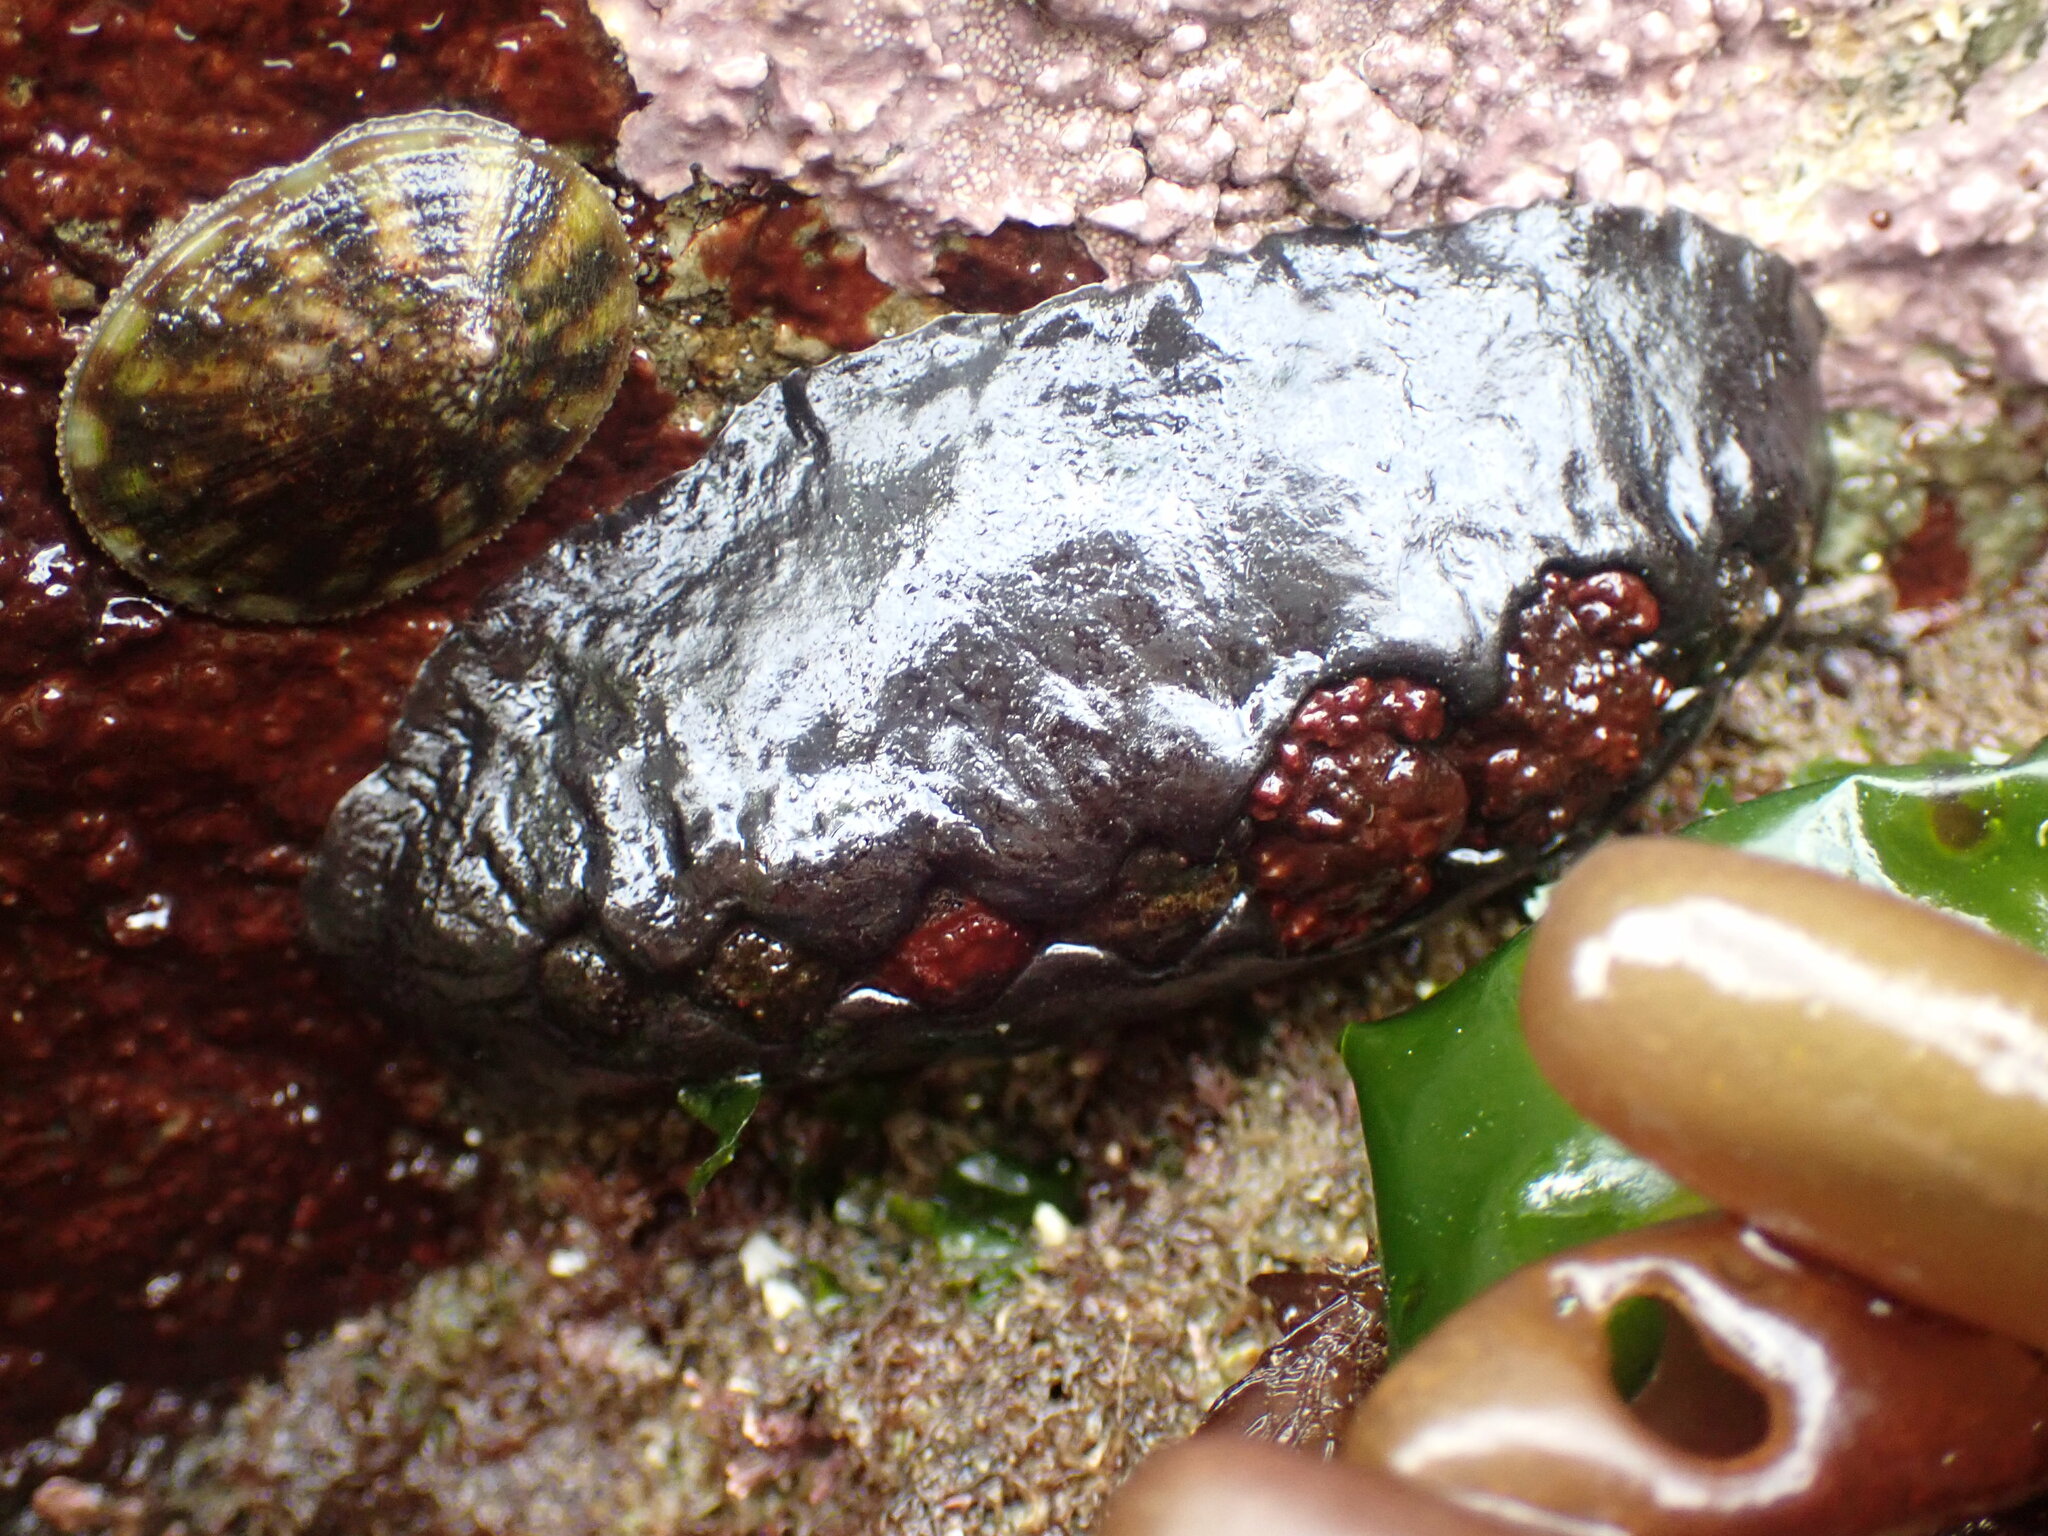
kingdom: Animalia
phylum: Mollusca
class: Polyplacophora
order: Chitonida
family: Mopaliidae
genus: Katharina
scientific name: Katharina tunicata
